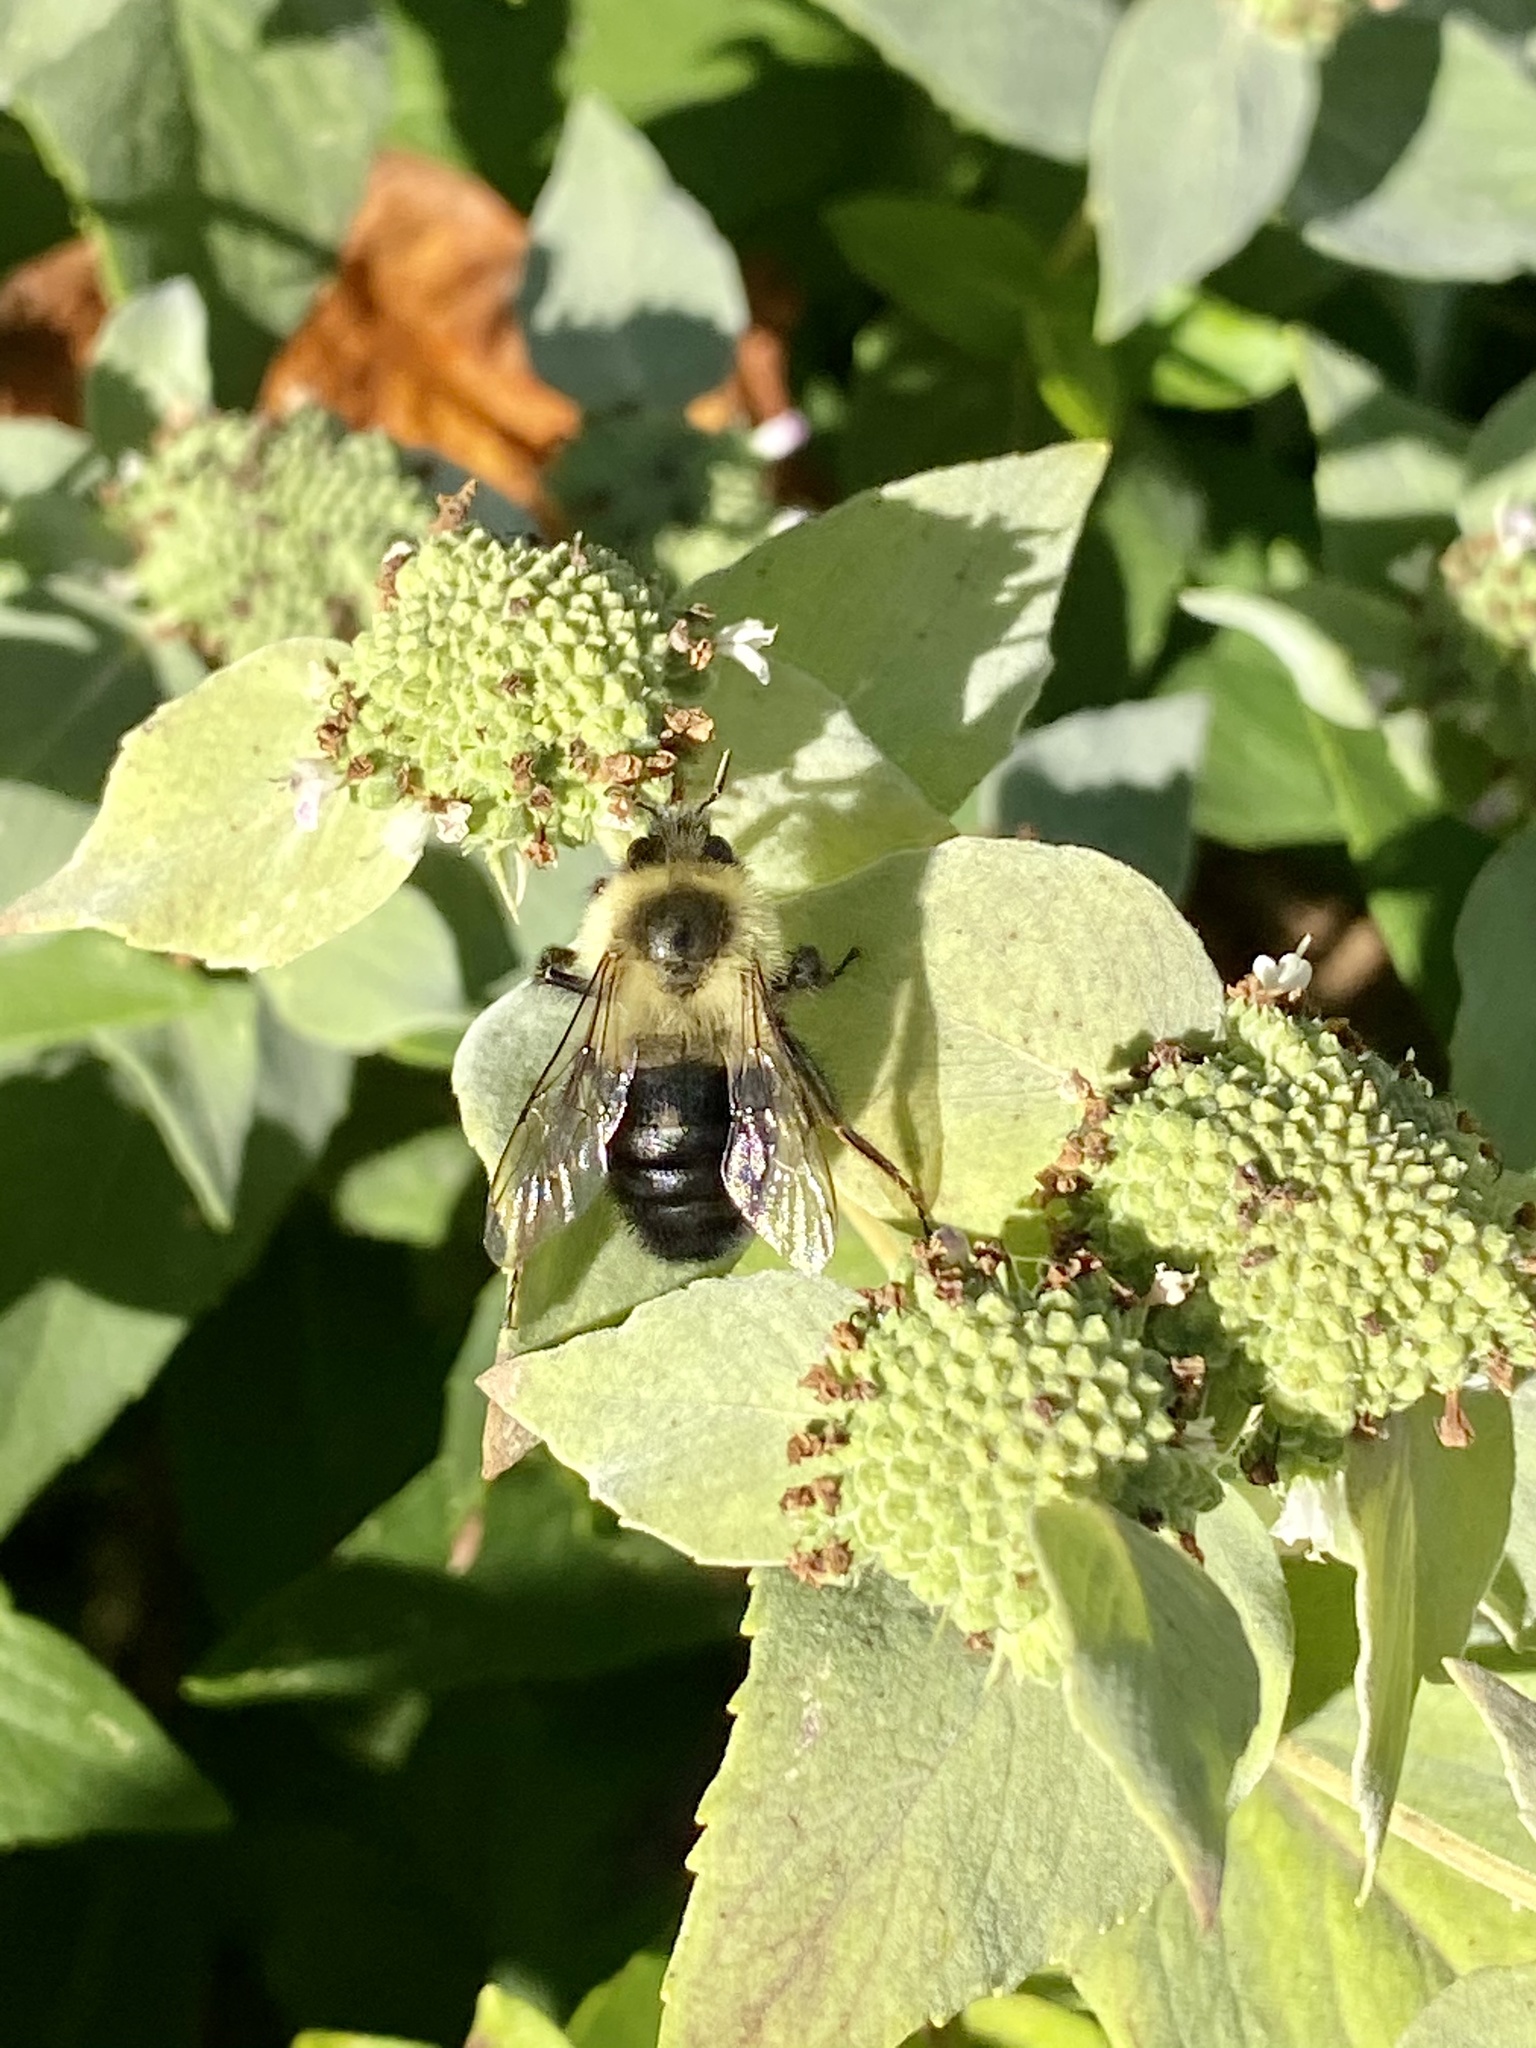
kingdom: Animalia
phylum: Arthropoda
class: Insecta
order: Hymenoptera
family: Apidae
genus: Bombus
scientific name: Bombus impatiens
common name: Common eastern bumble bee
